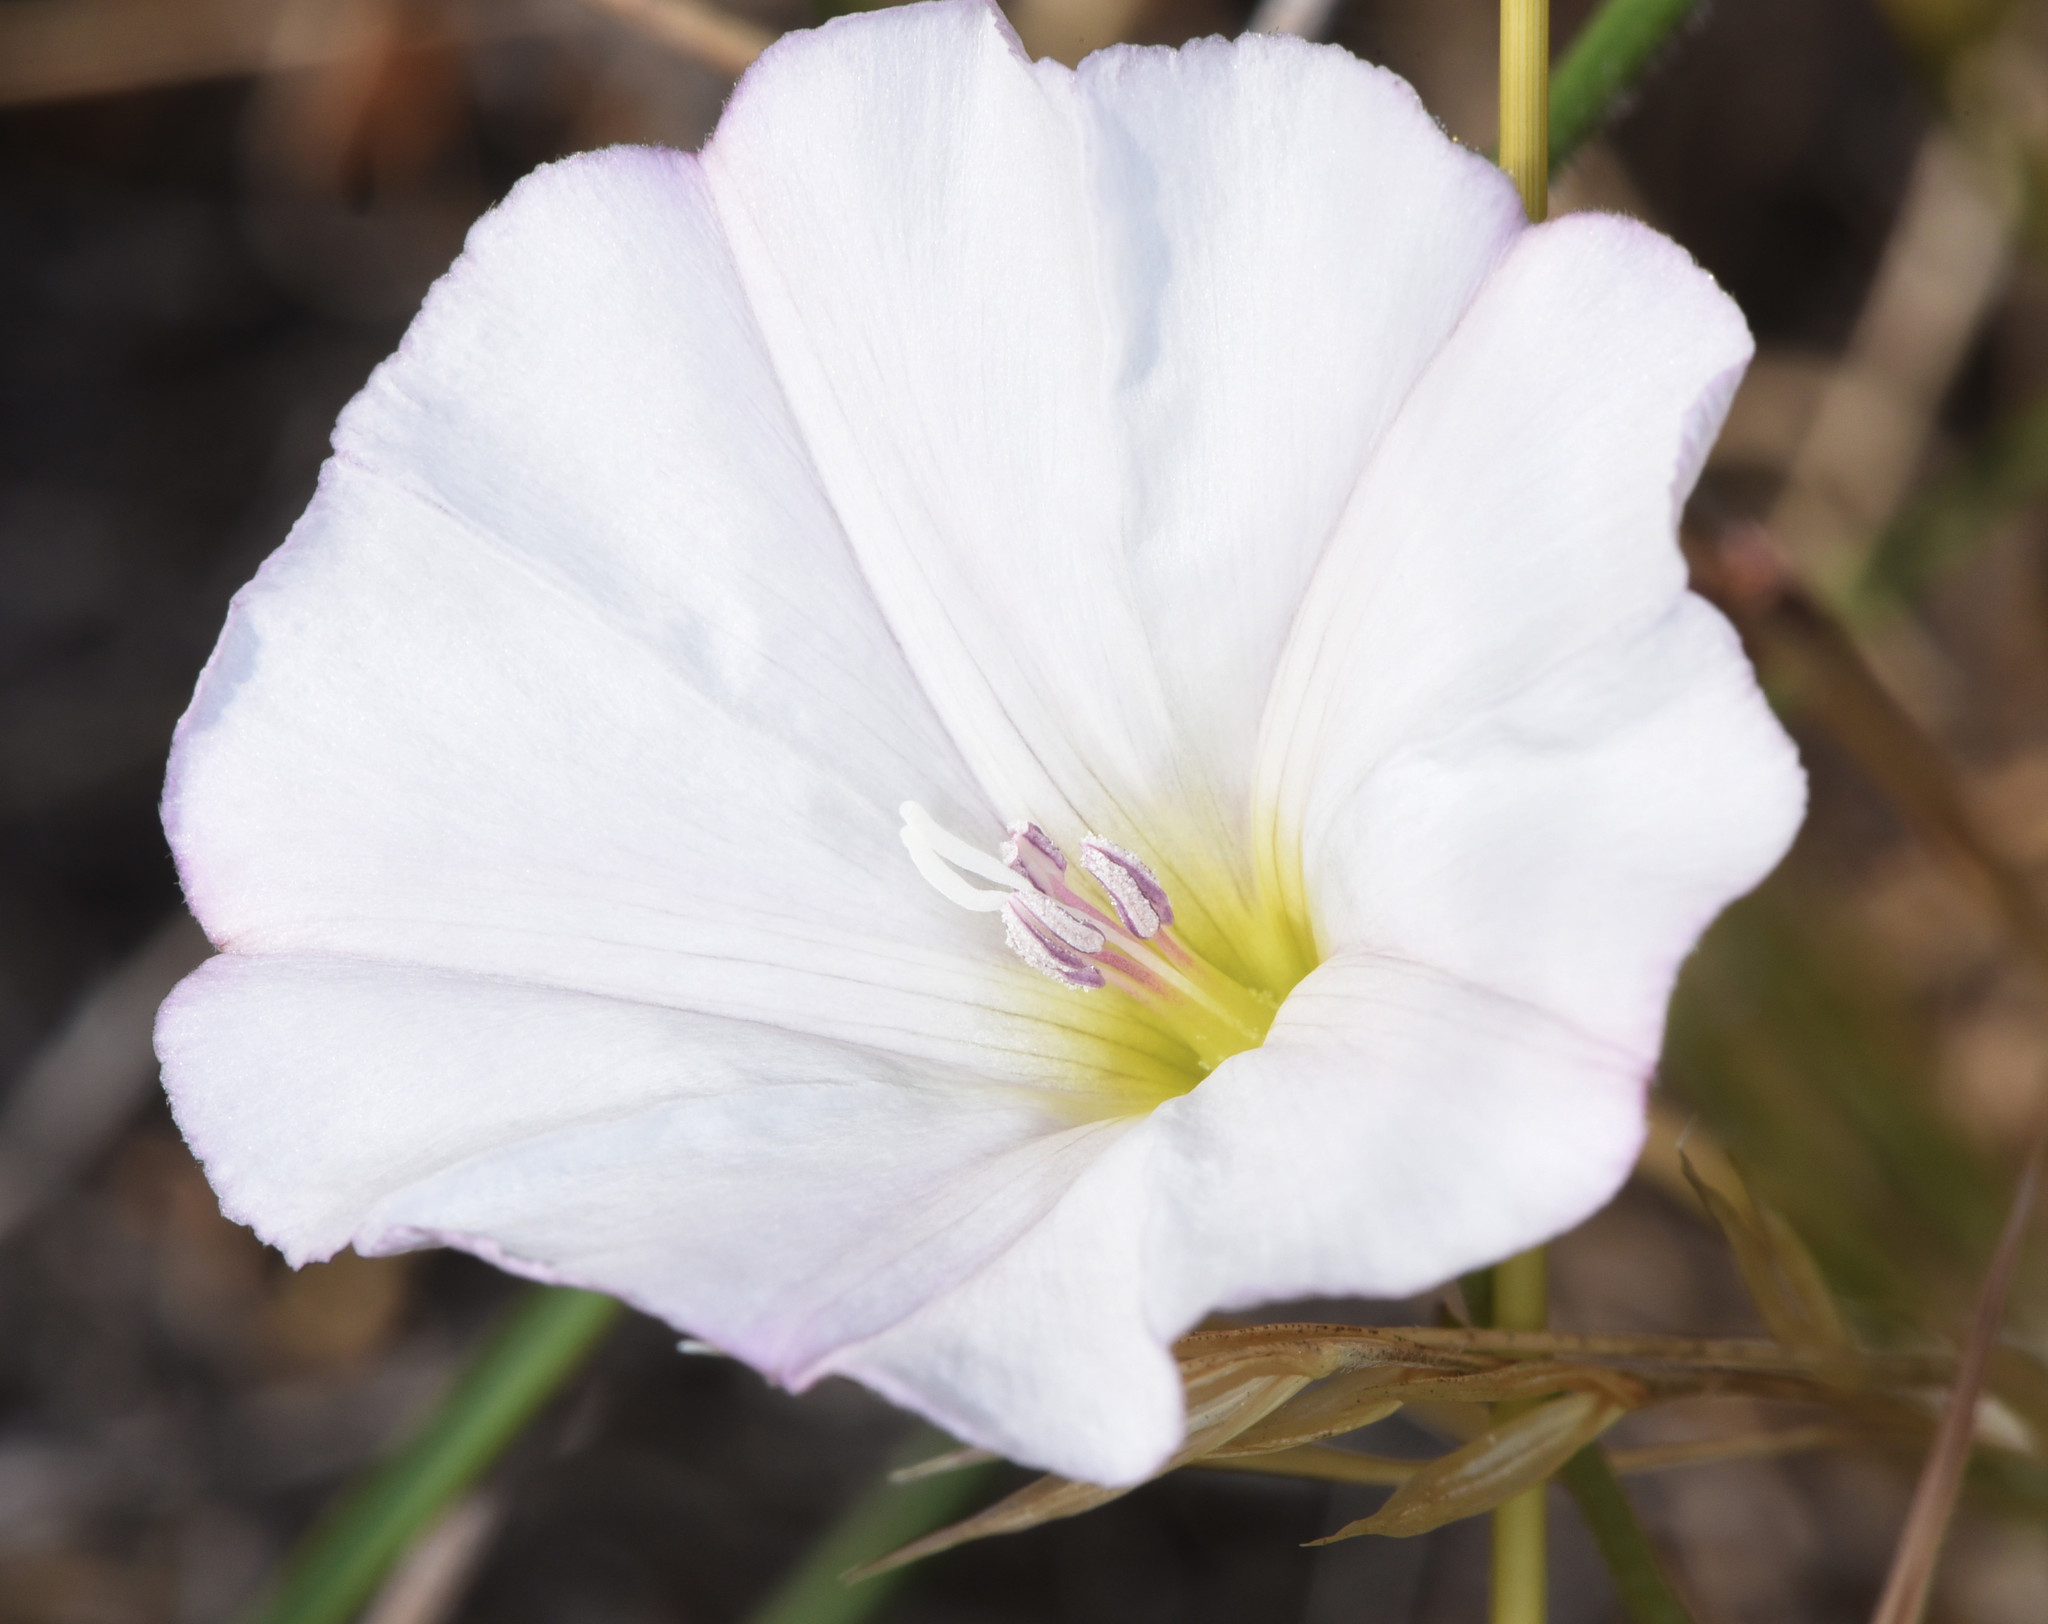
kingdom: Plantae
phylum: Tracheophyta
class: Magnoliopsida
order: Solanales
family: Convolvulaceae
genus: Calystegia
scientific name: Calystegia occidentalis
